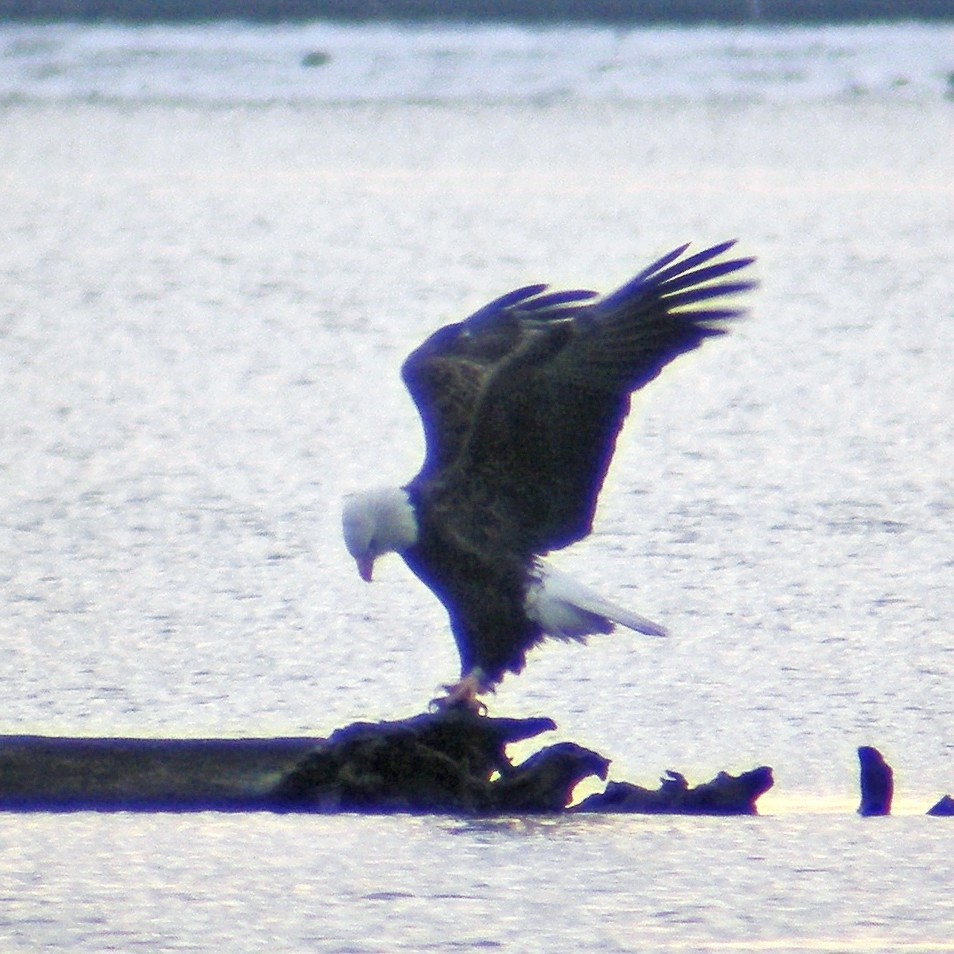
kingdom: Animalia
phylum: Chordata
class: Aves
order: Accipitriformes
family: Accipitridae
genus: Haliaeetus
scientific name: Haliaeetus leucocephalus
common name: Bald eagle
